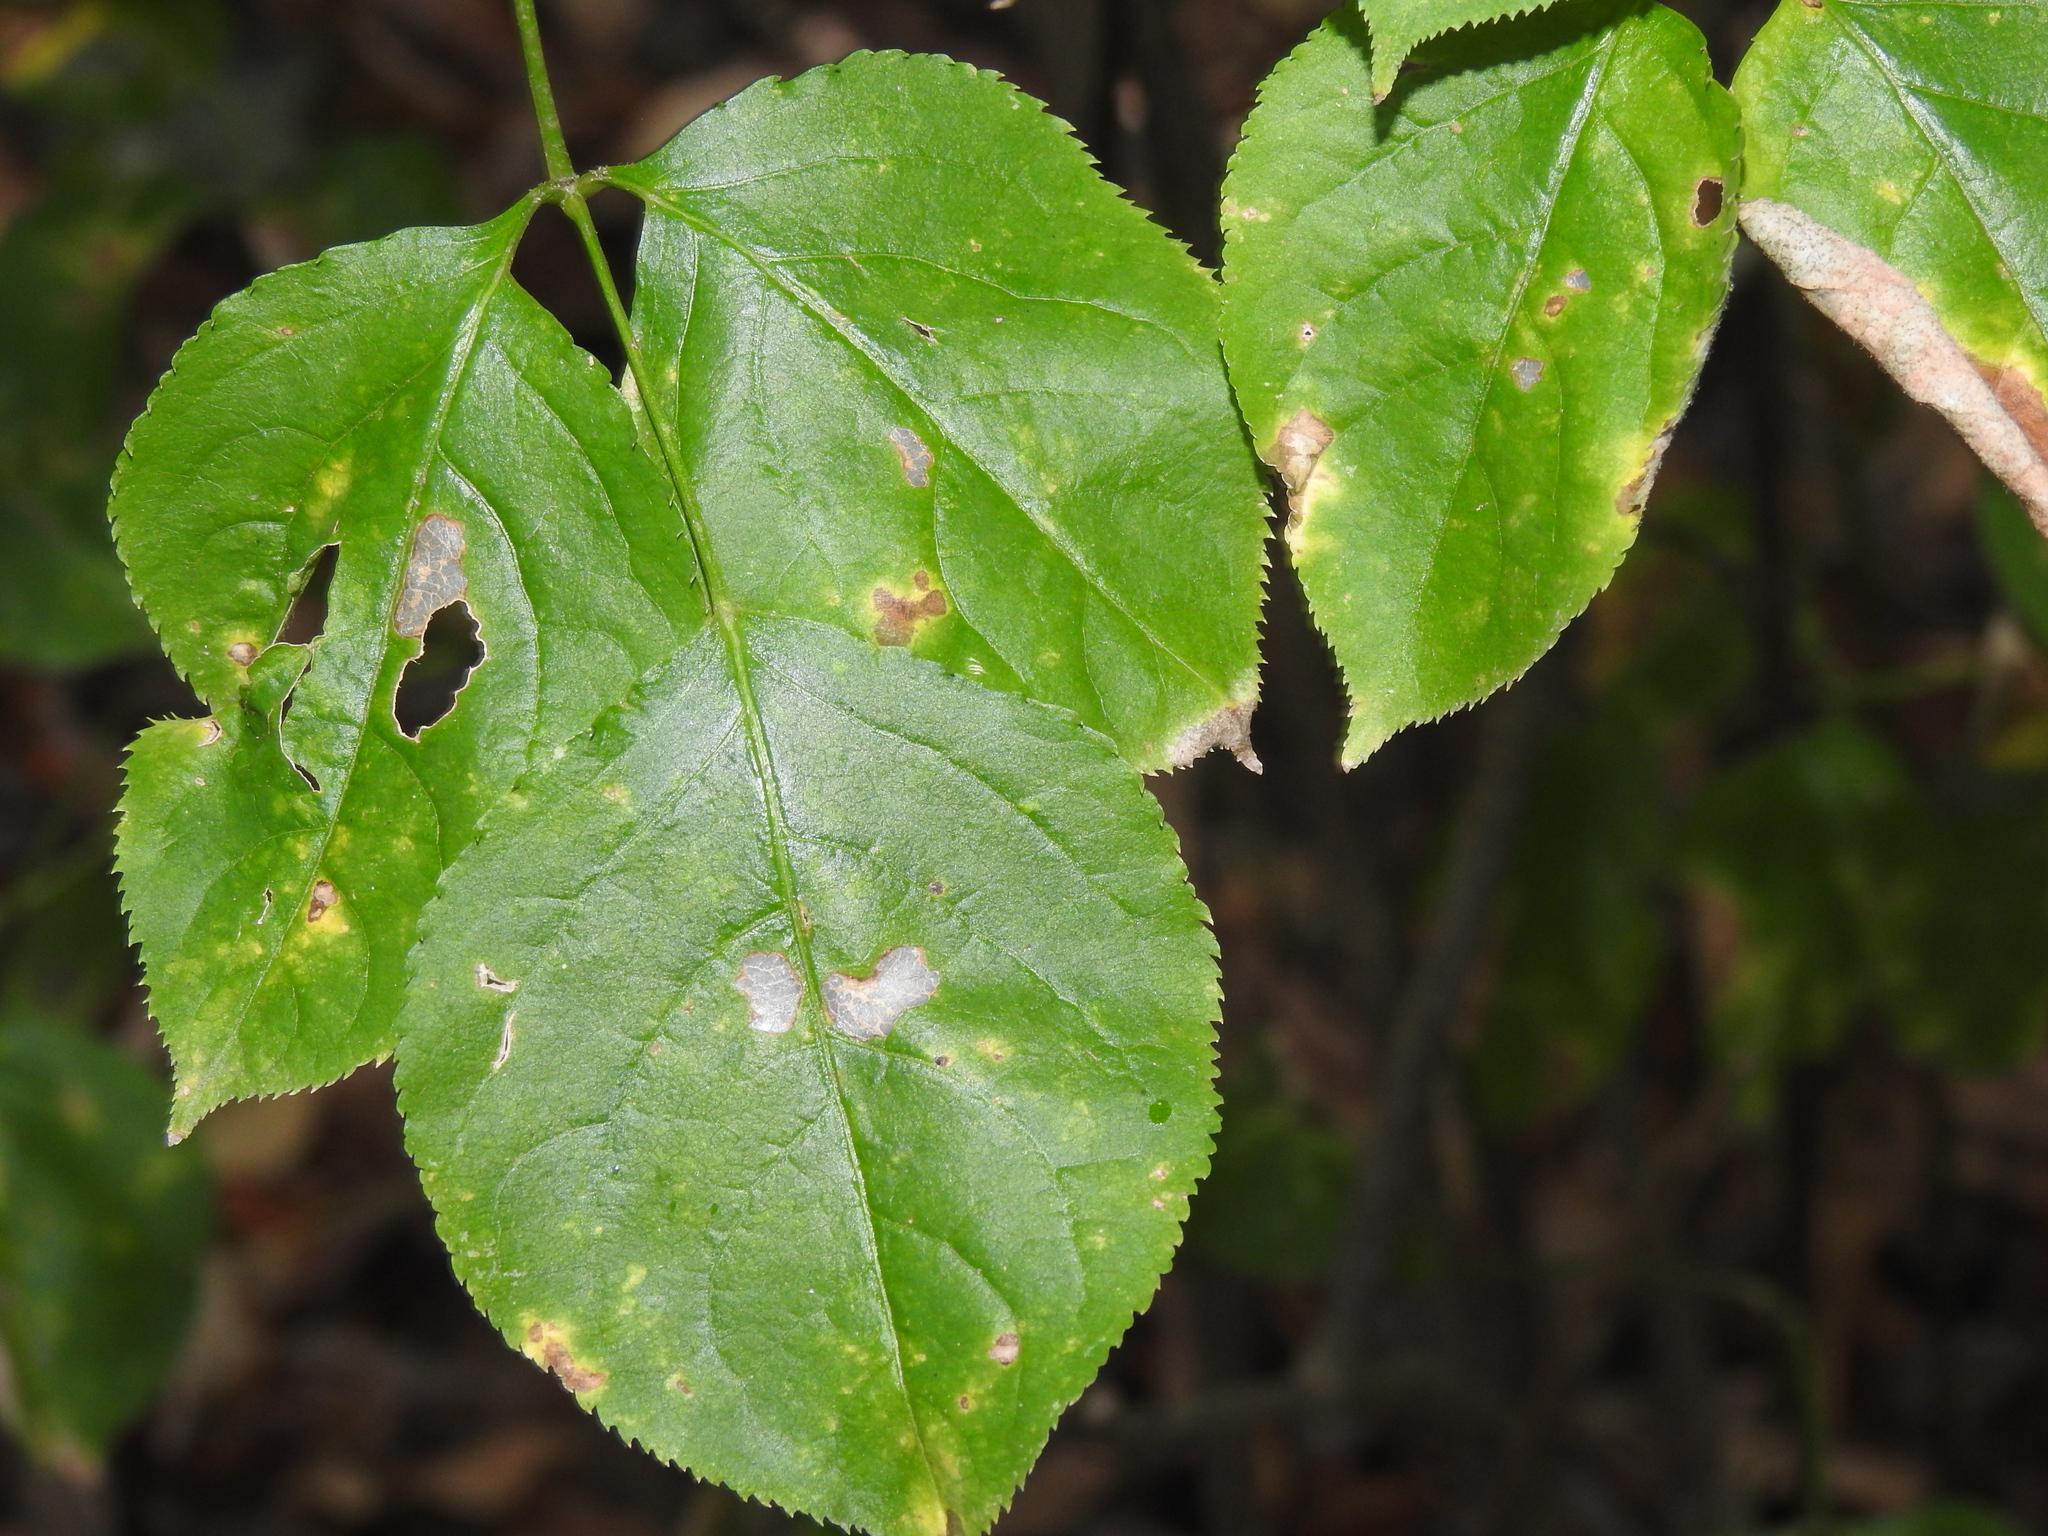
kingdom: Plantae
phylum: Tracheophyta
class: Magnoliopsida
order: Crossosomatales
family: Staphyleaceae
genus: Staphylea
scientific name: Staphylea trifolia
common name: American bladdernut
